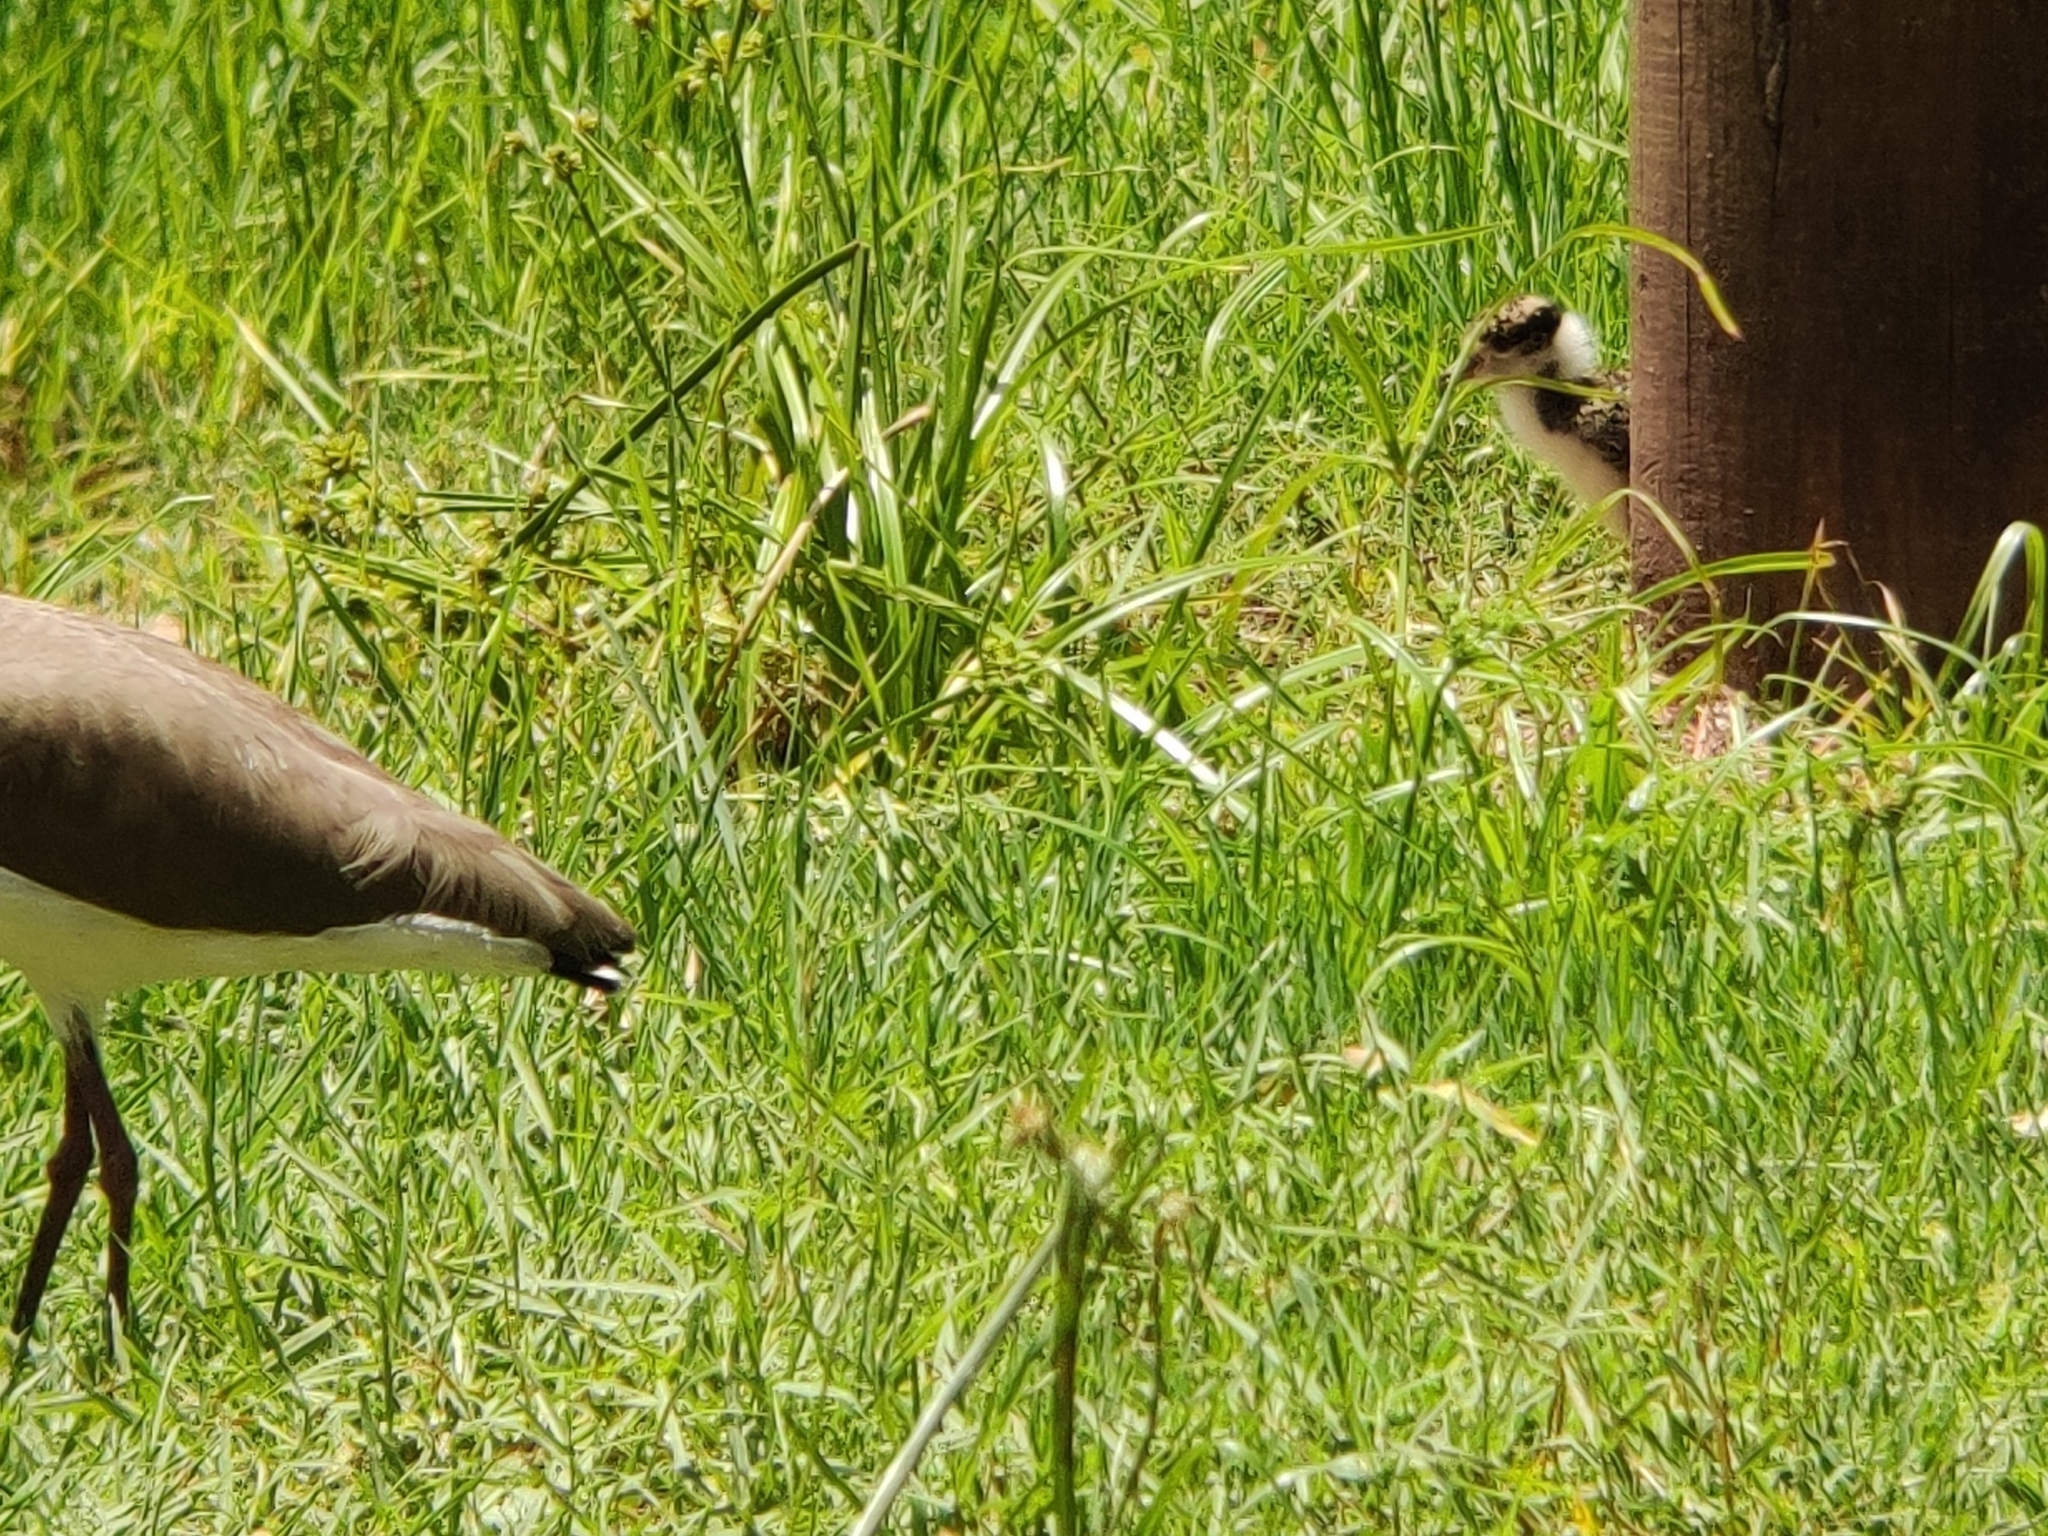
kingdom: Animalia
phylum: Chordata
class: Aves
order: Charadriiformes
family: Charadriidae
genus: Vanellus
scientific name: Vanellus miles
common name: Masked lapwing
